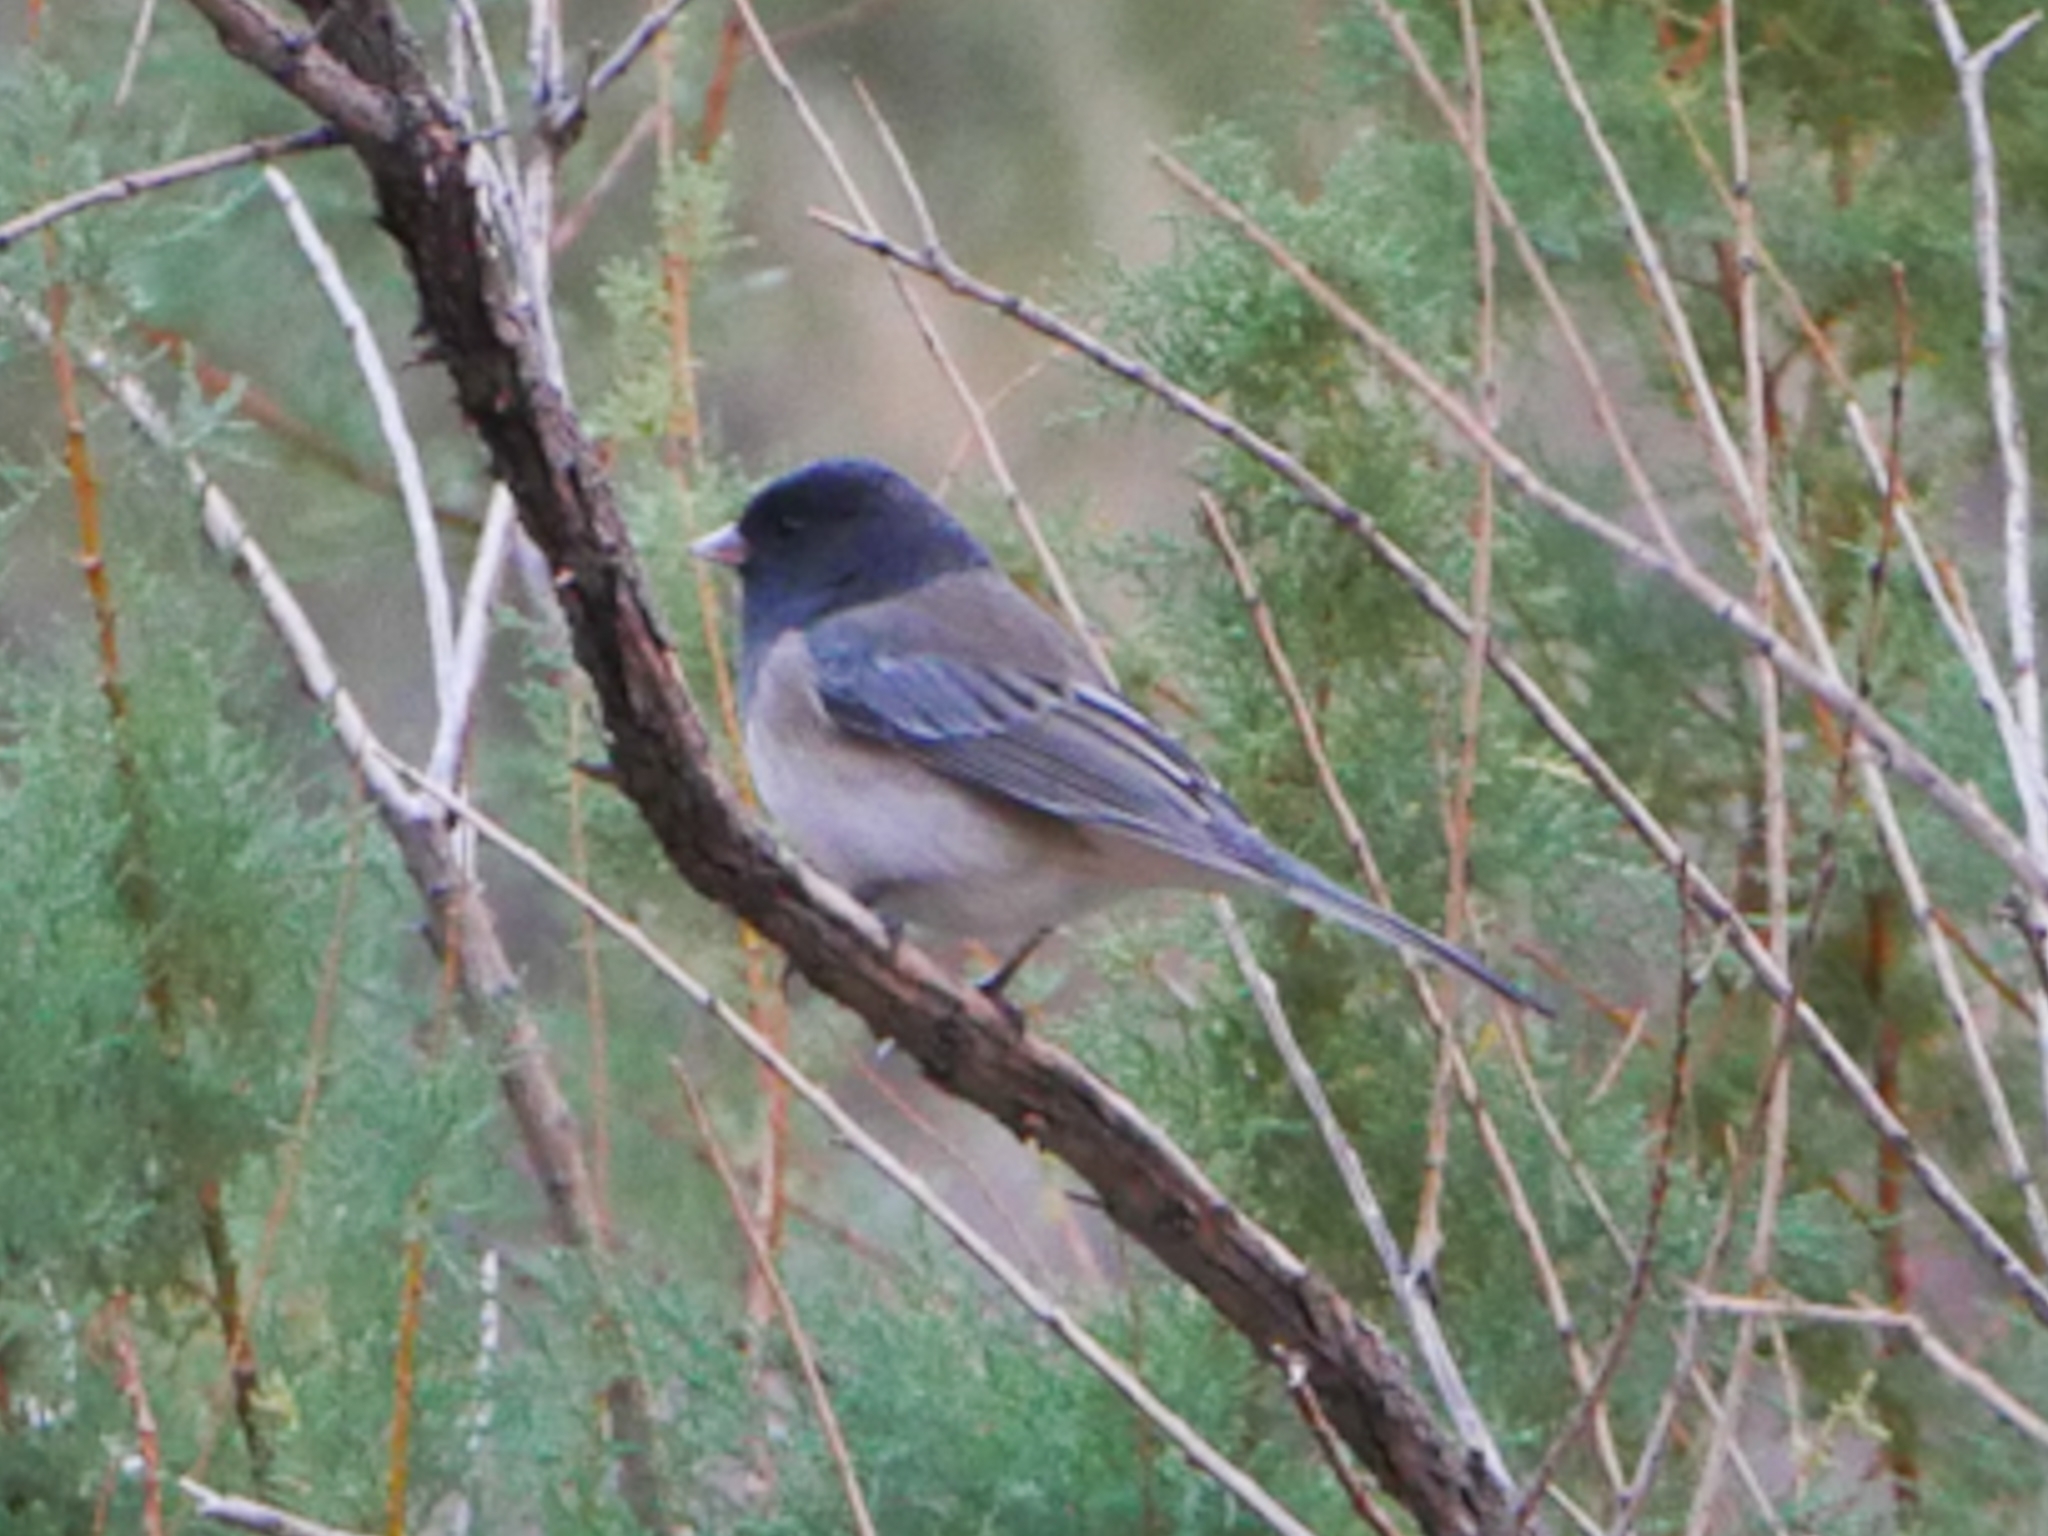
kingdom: Animalia
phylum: Chordata
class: Aves
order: Passeriformes
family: Passerellidae
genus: Junco
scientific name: Junco hyemalis
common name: Dark-eyed junco
